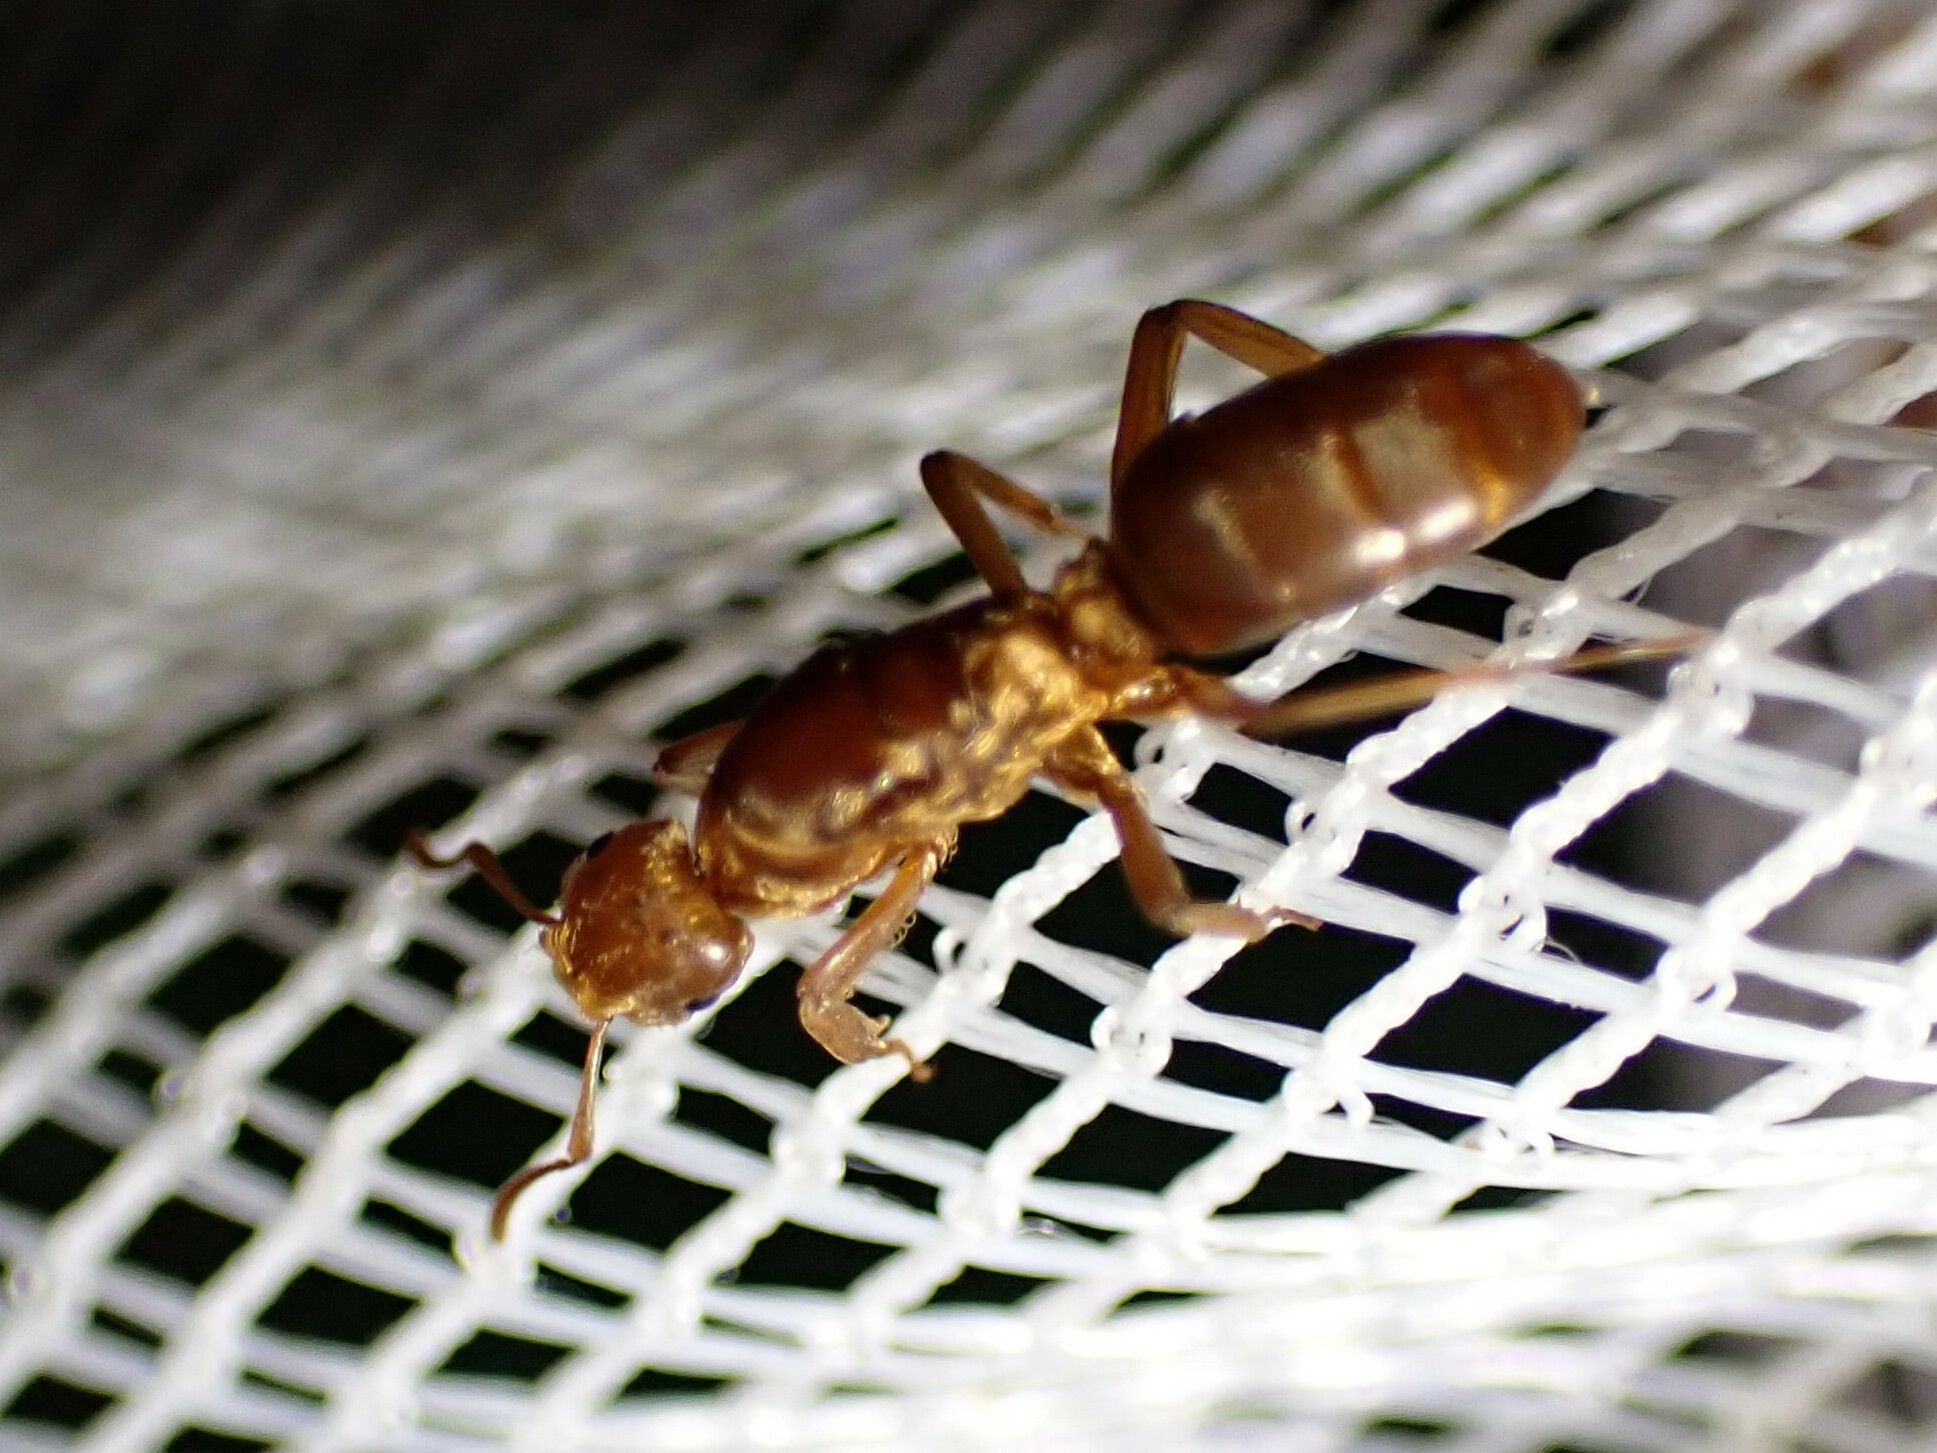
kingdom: Animalia
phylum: Arthropoda
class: Insecta
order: Hymenoptera
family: Formicidae
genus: Acanthomyops
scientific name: Acanthomyops murphyi
